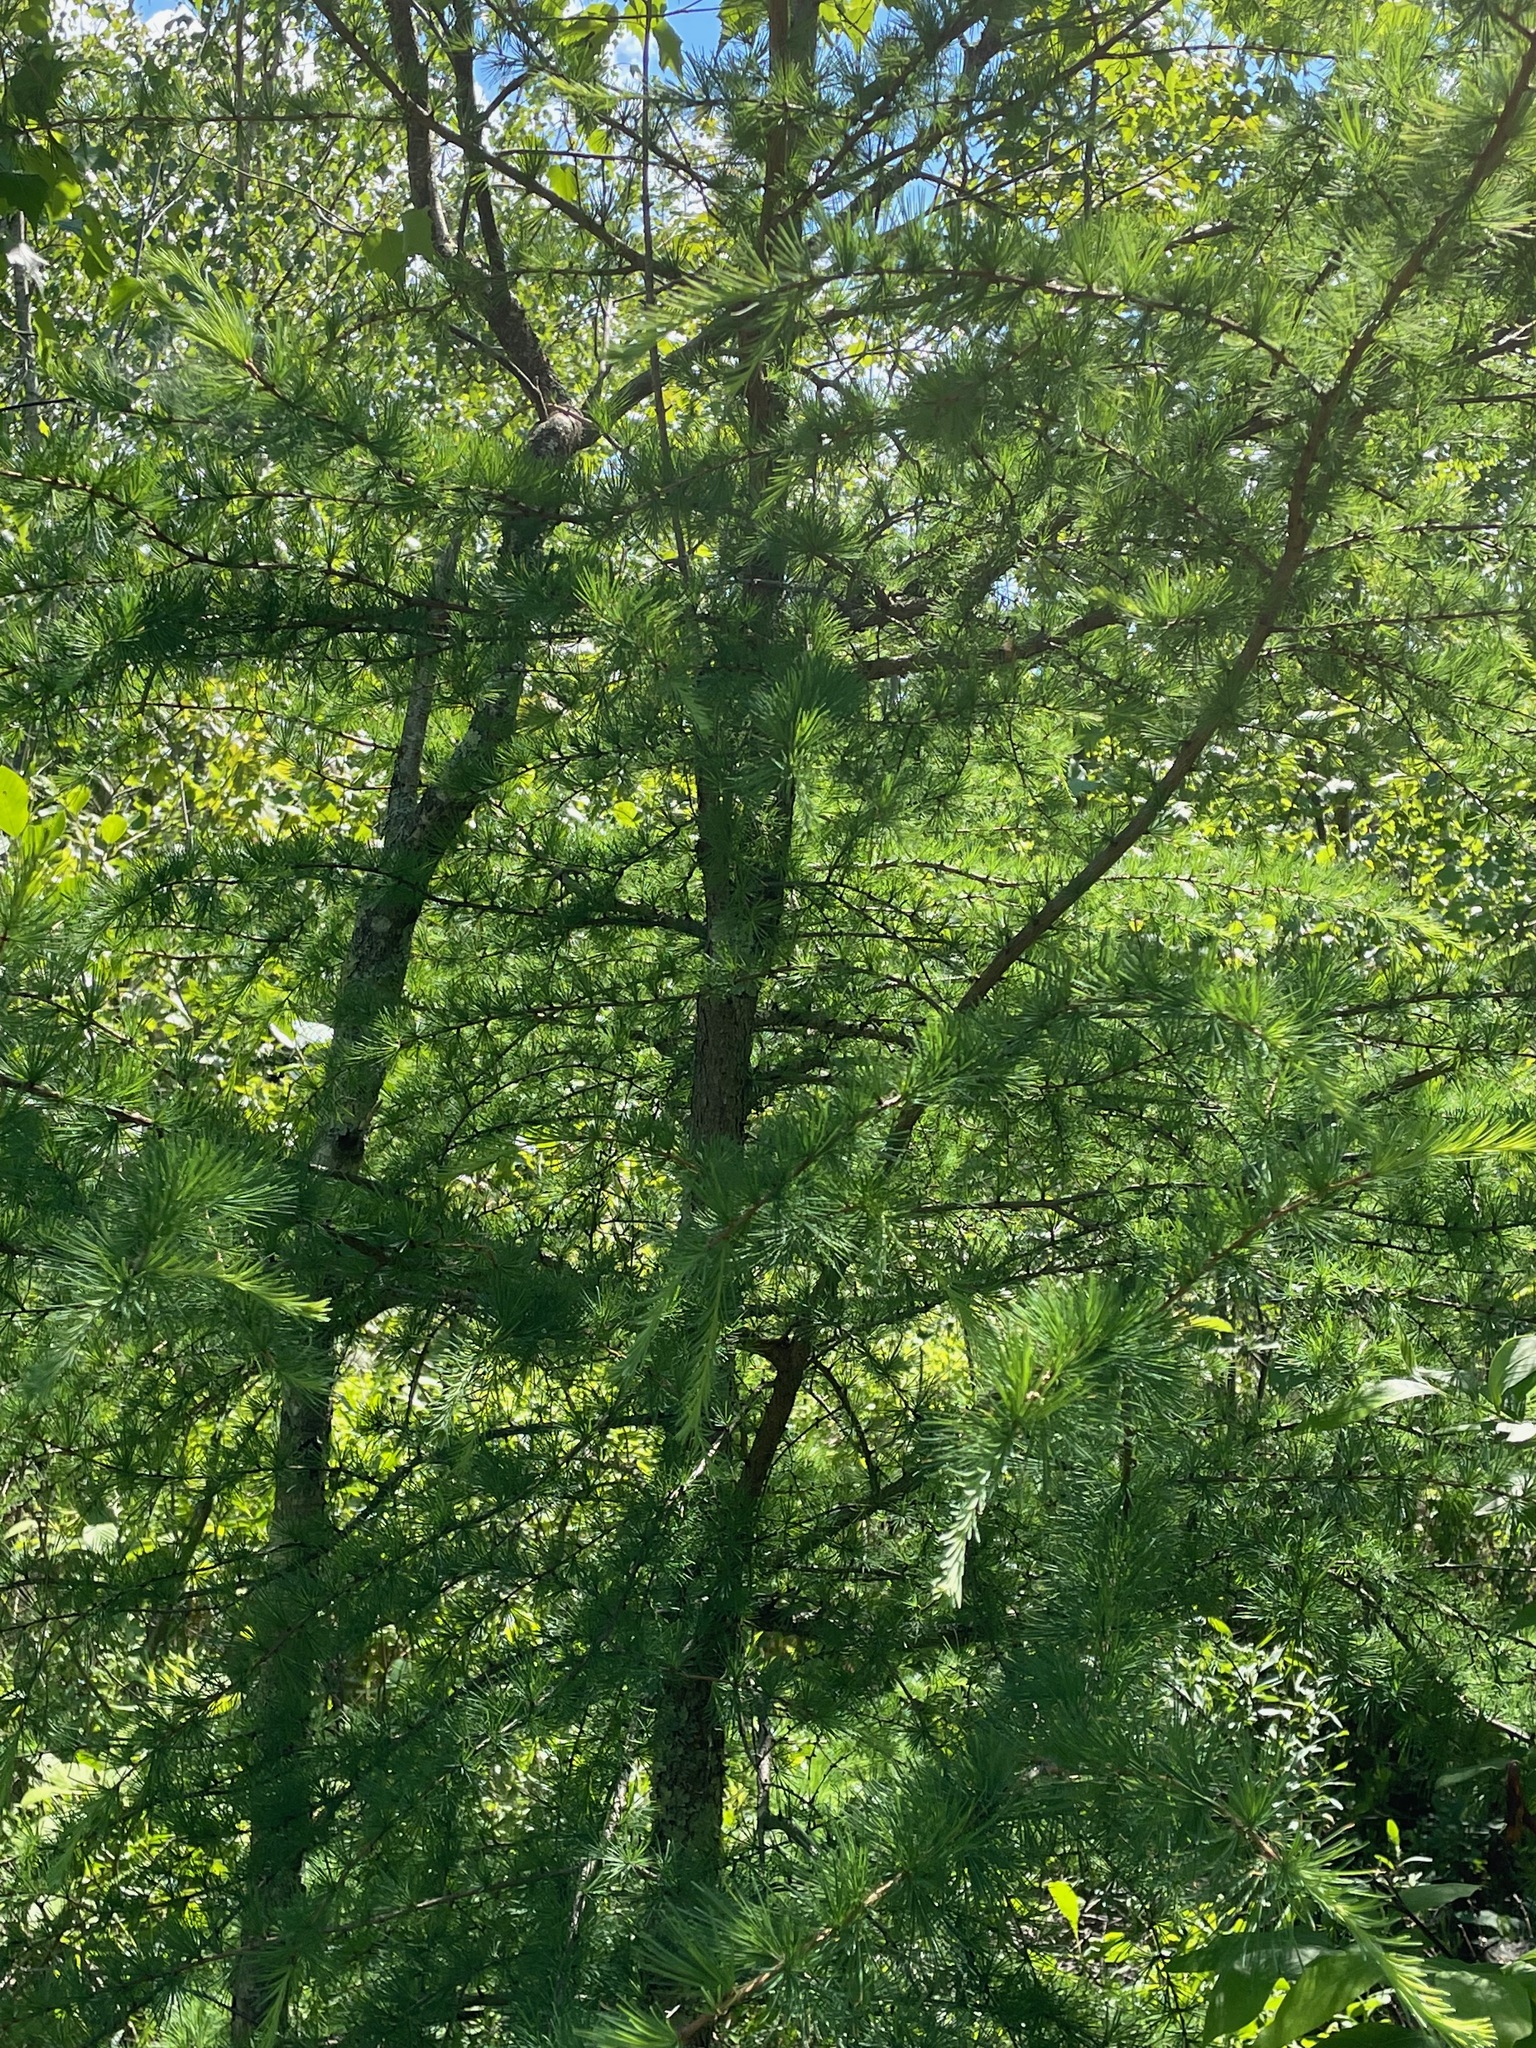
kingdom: Plantae
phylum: Tracheophyta
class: Pinopsida
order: Pinales
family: Pinaceae
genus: Larix
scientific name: Larix laricina
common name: American larch
